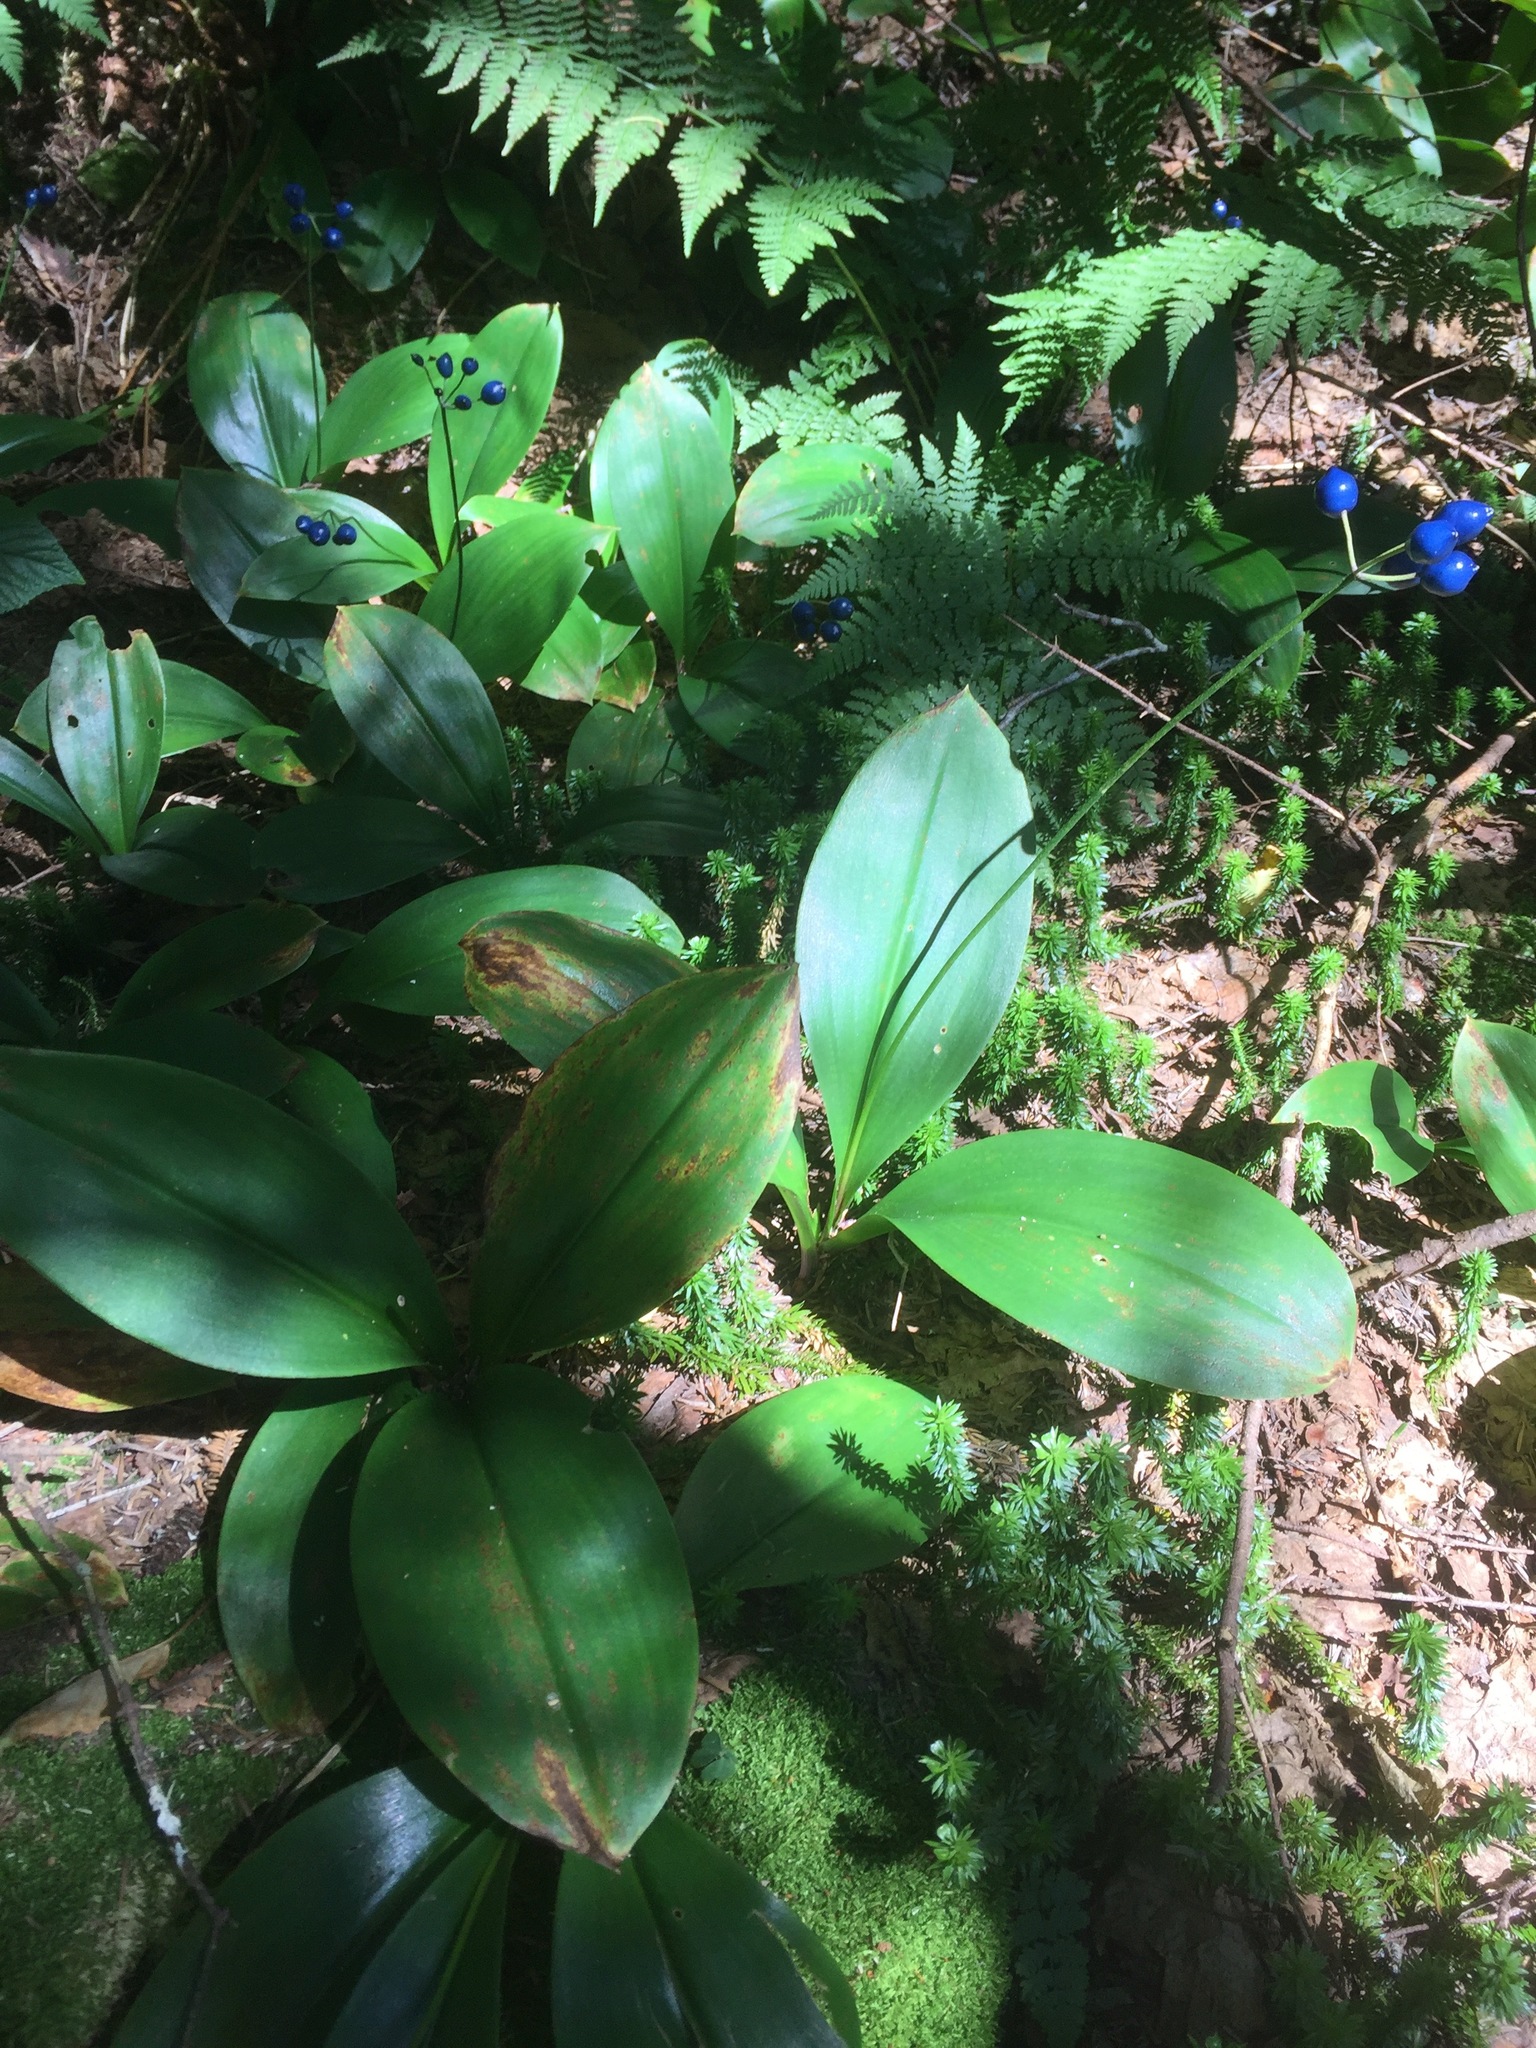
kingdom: Plantae
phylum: Tracheophyta
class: Liliopsida
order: Liliales
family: Liliaceae
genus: Clintonia
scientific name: Clintonia borealis
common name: Yellow clintonia
